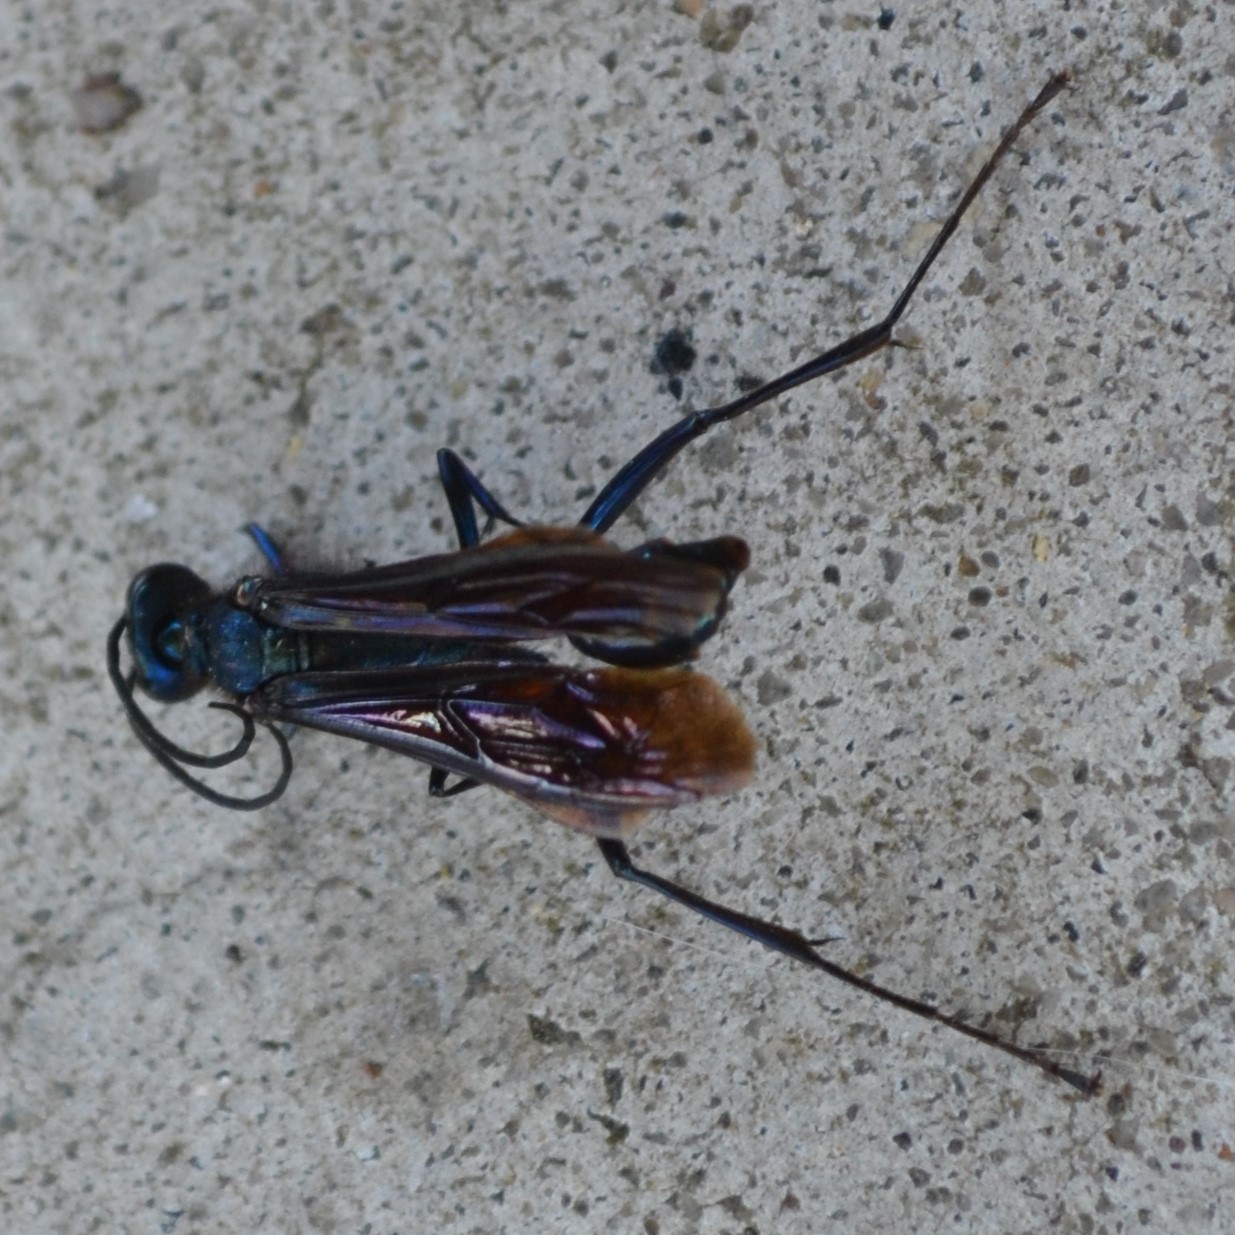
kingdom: Animalia
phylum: Arthropoda
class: Insecta
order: Hymenoptera
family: Sphecidae
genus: Chalybion
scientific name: Chalybion californicum
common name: Mud dauber
